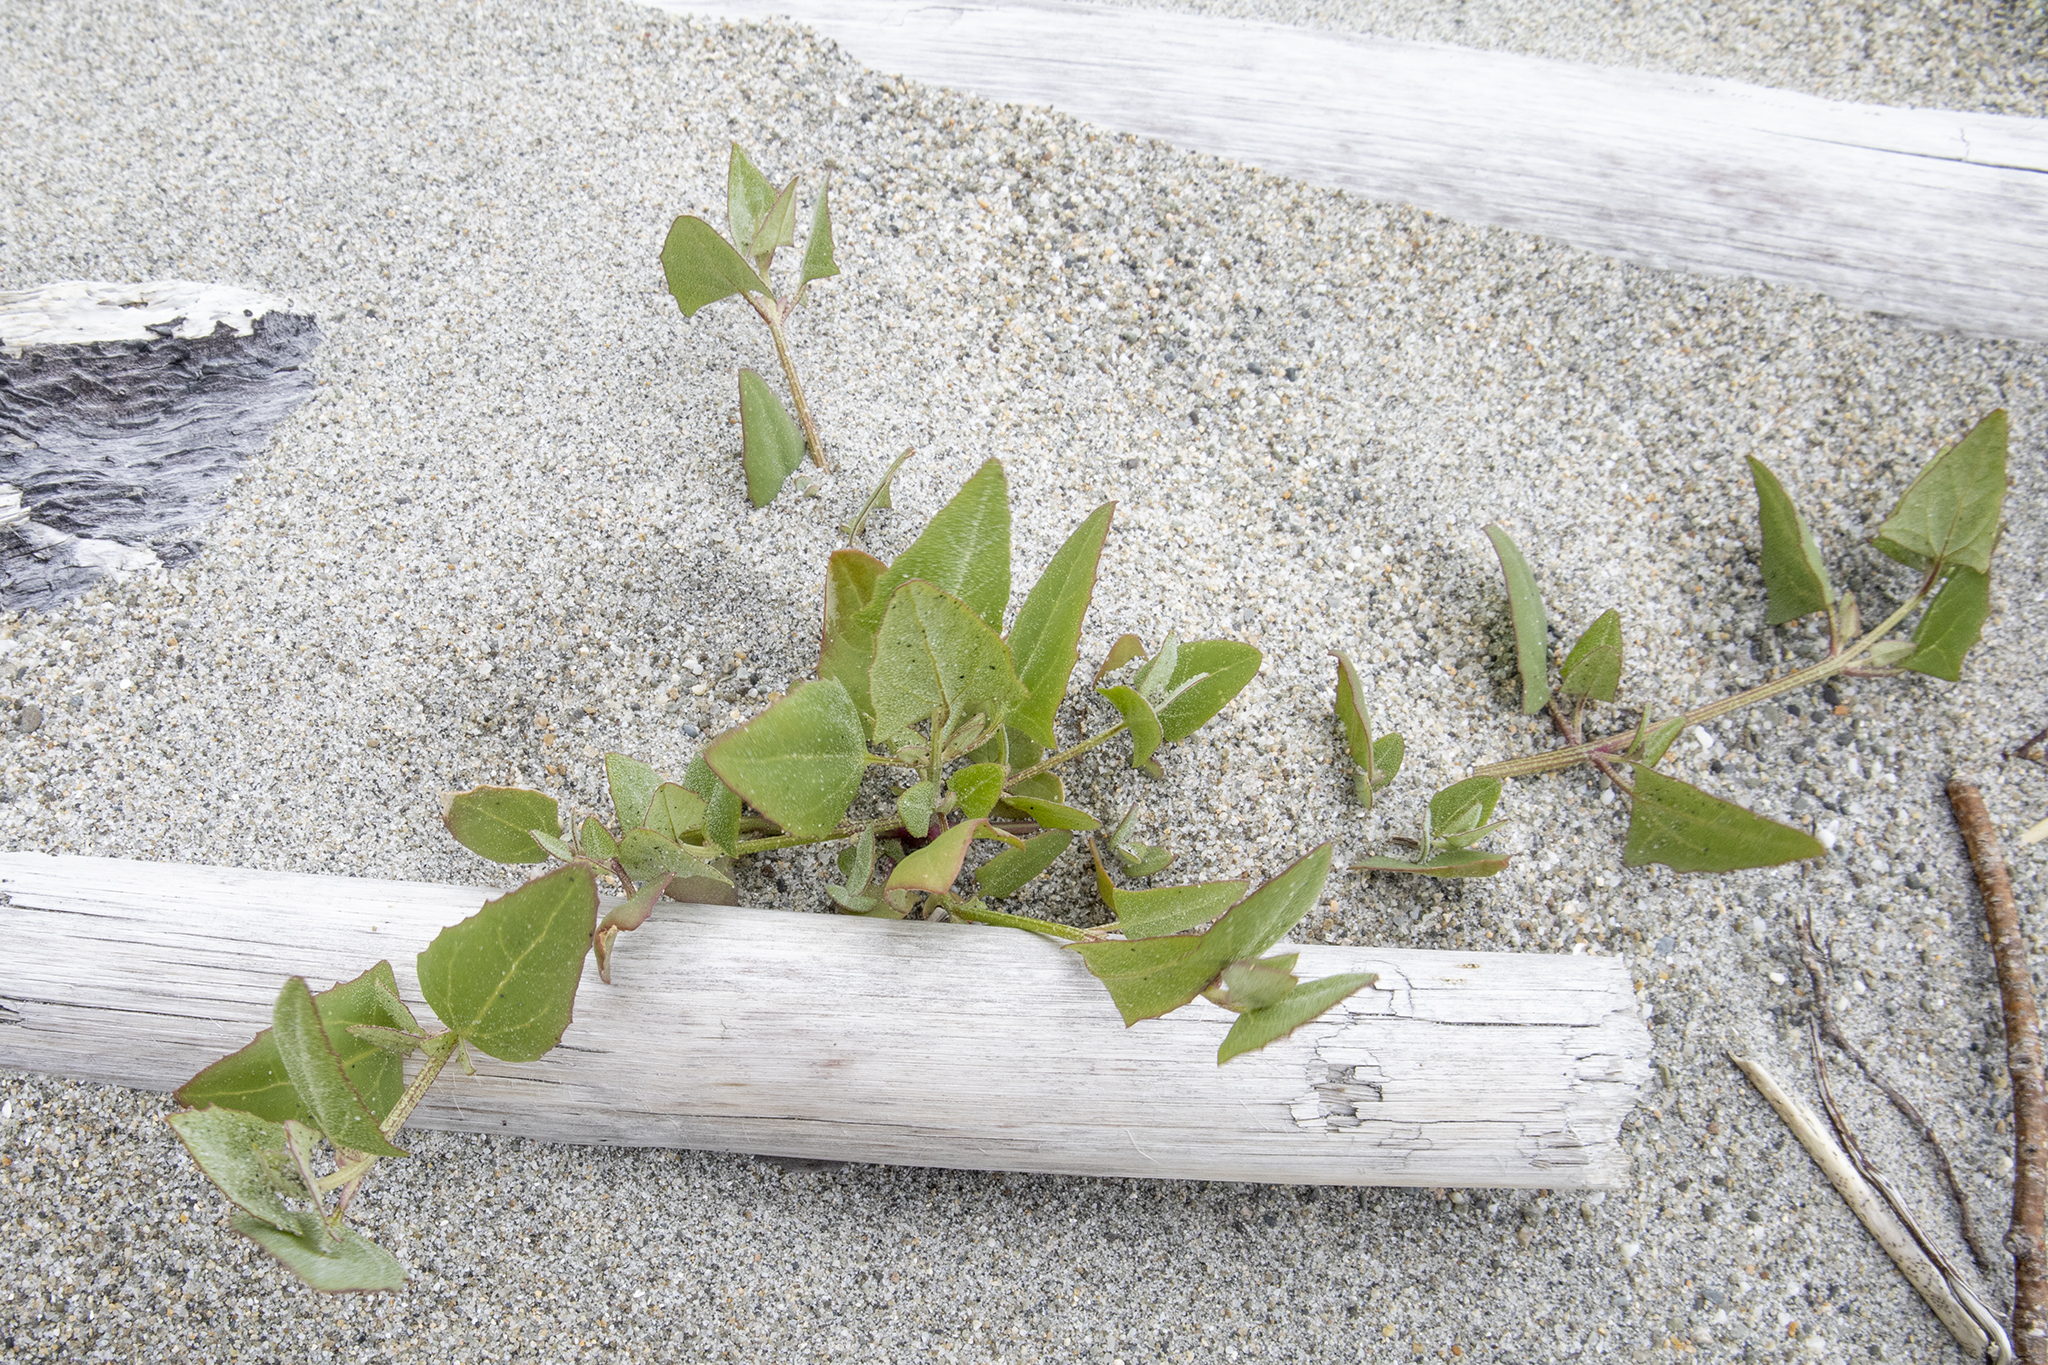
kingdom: Plantae
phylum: Tracheophyta
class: Magnoliopsida
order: Caryophyllales
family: Amaranthaceae
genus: Atriplex
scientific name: Atriplex prostrata
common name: Spear-leaved orache
